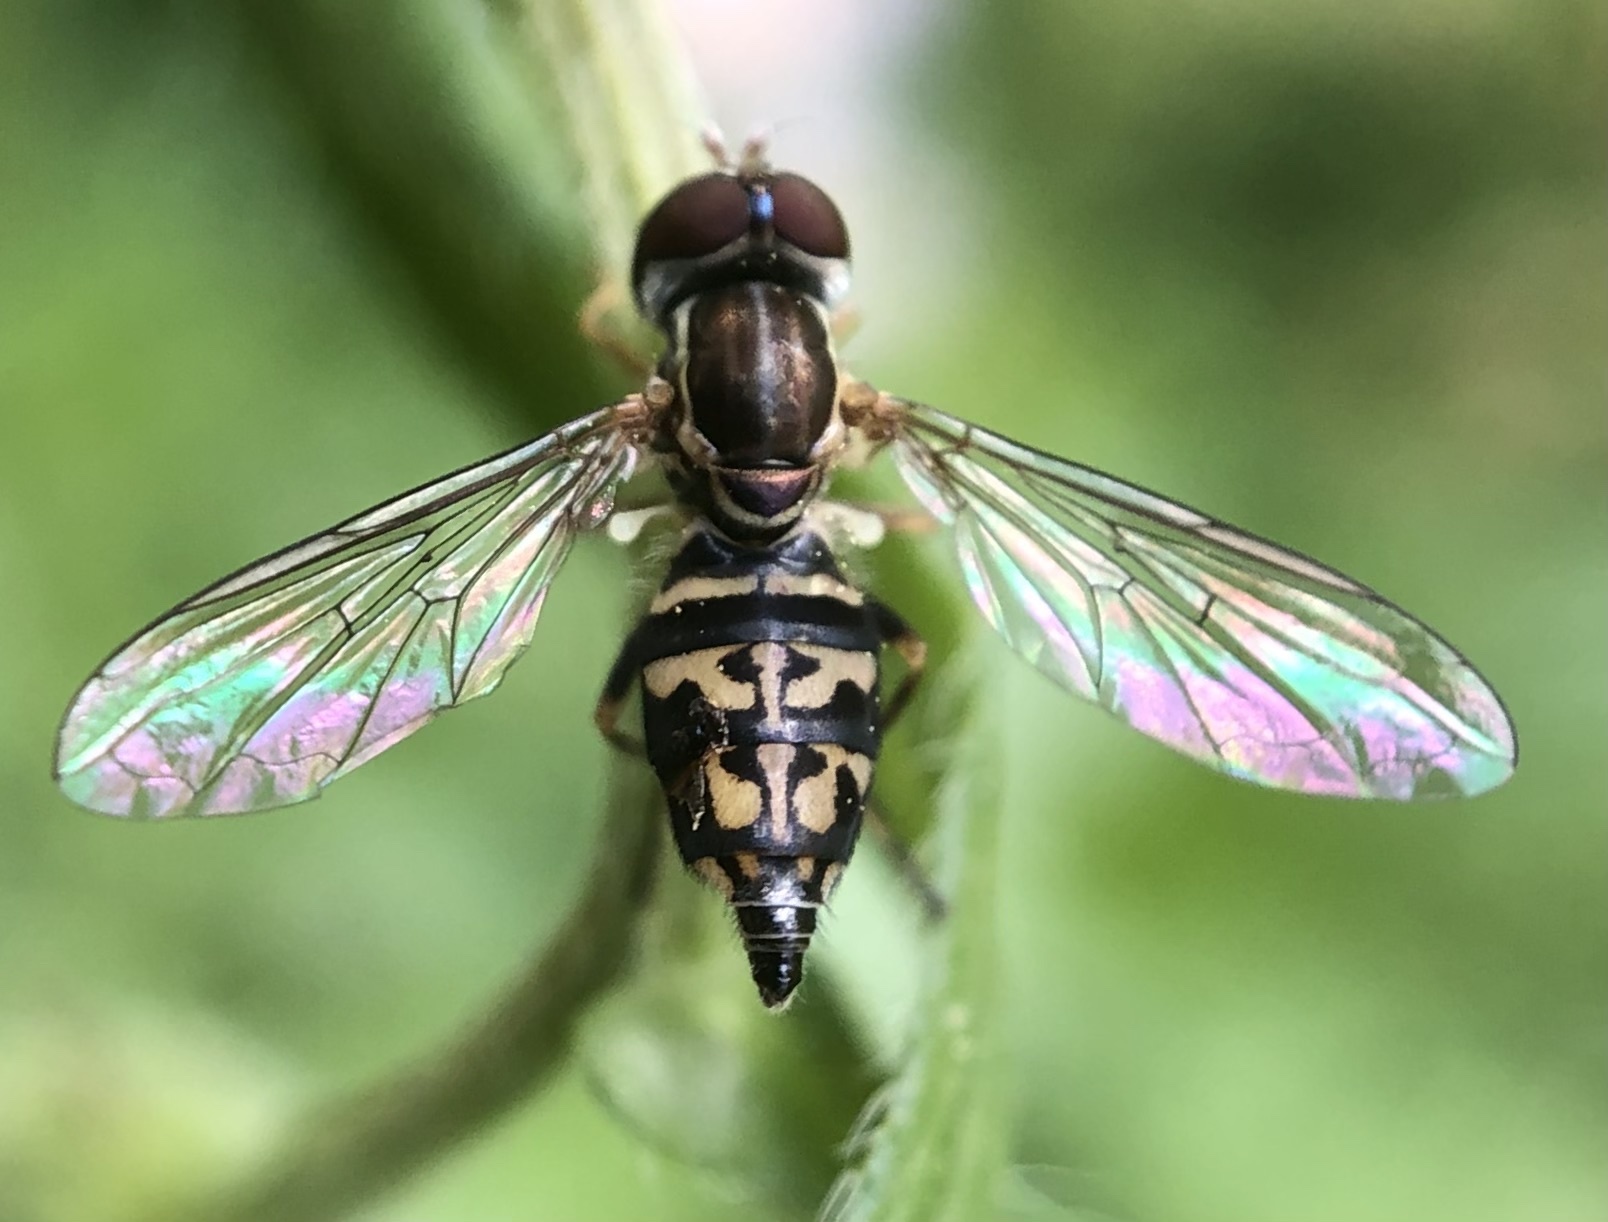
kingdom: Animalia
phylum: Arthropoda
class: Insecta
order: Diptera
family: Syrphidae
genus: Toxomerus
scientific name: Toxomerus geminatus
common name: Eastern calligrapher
